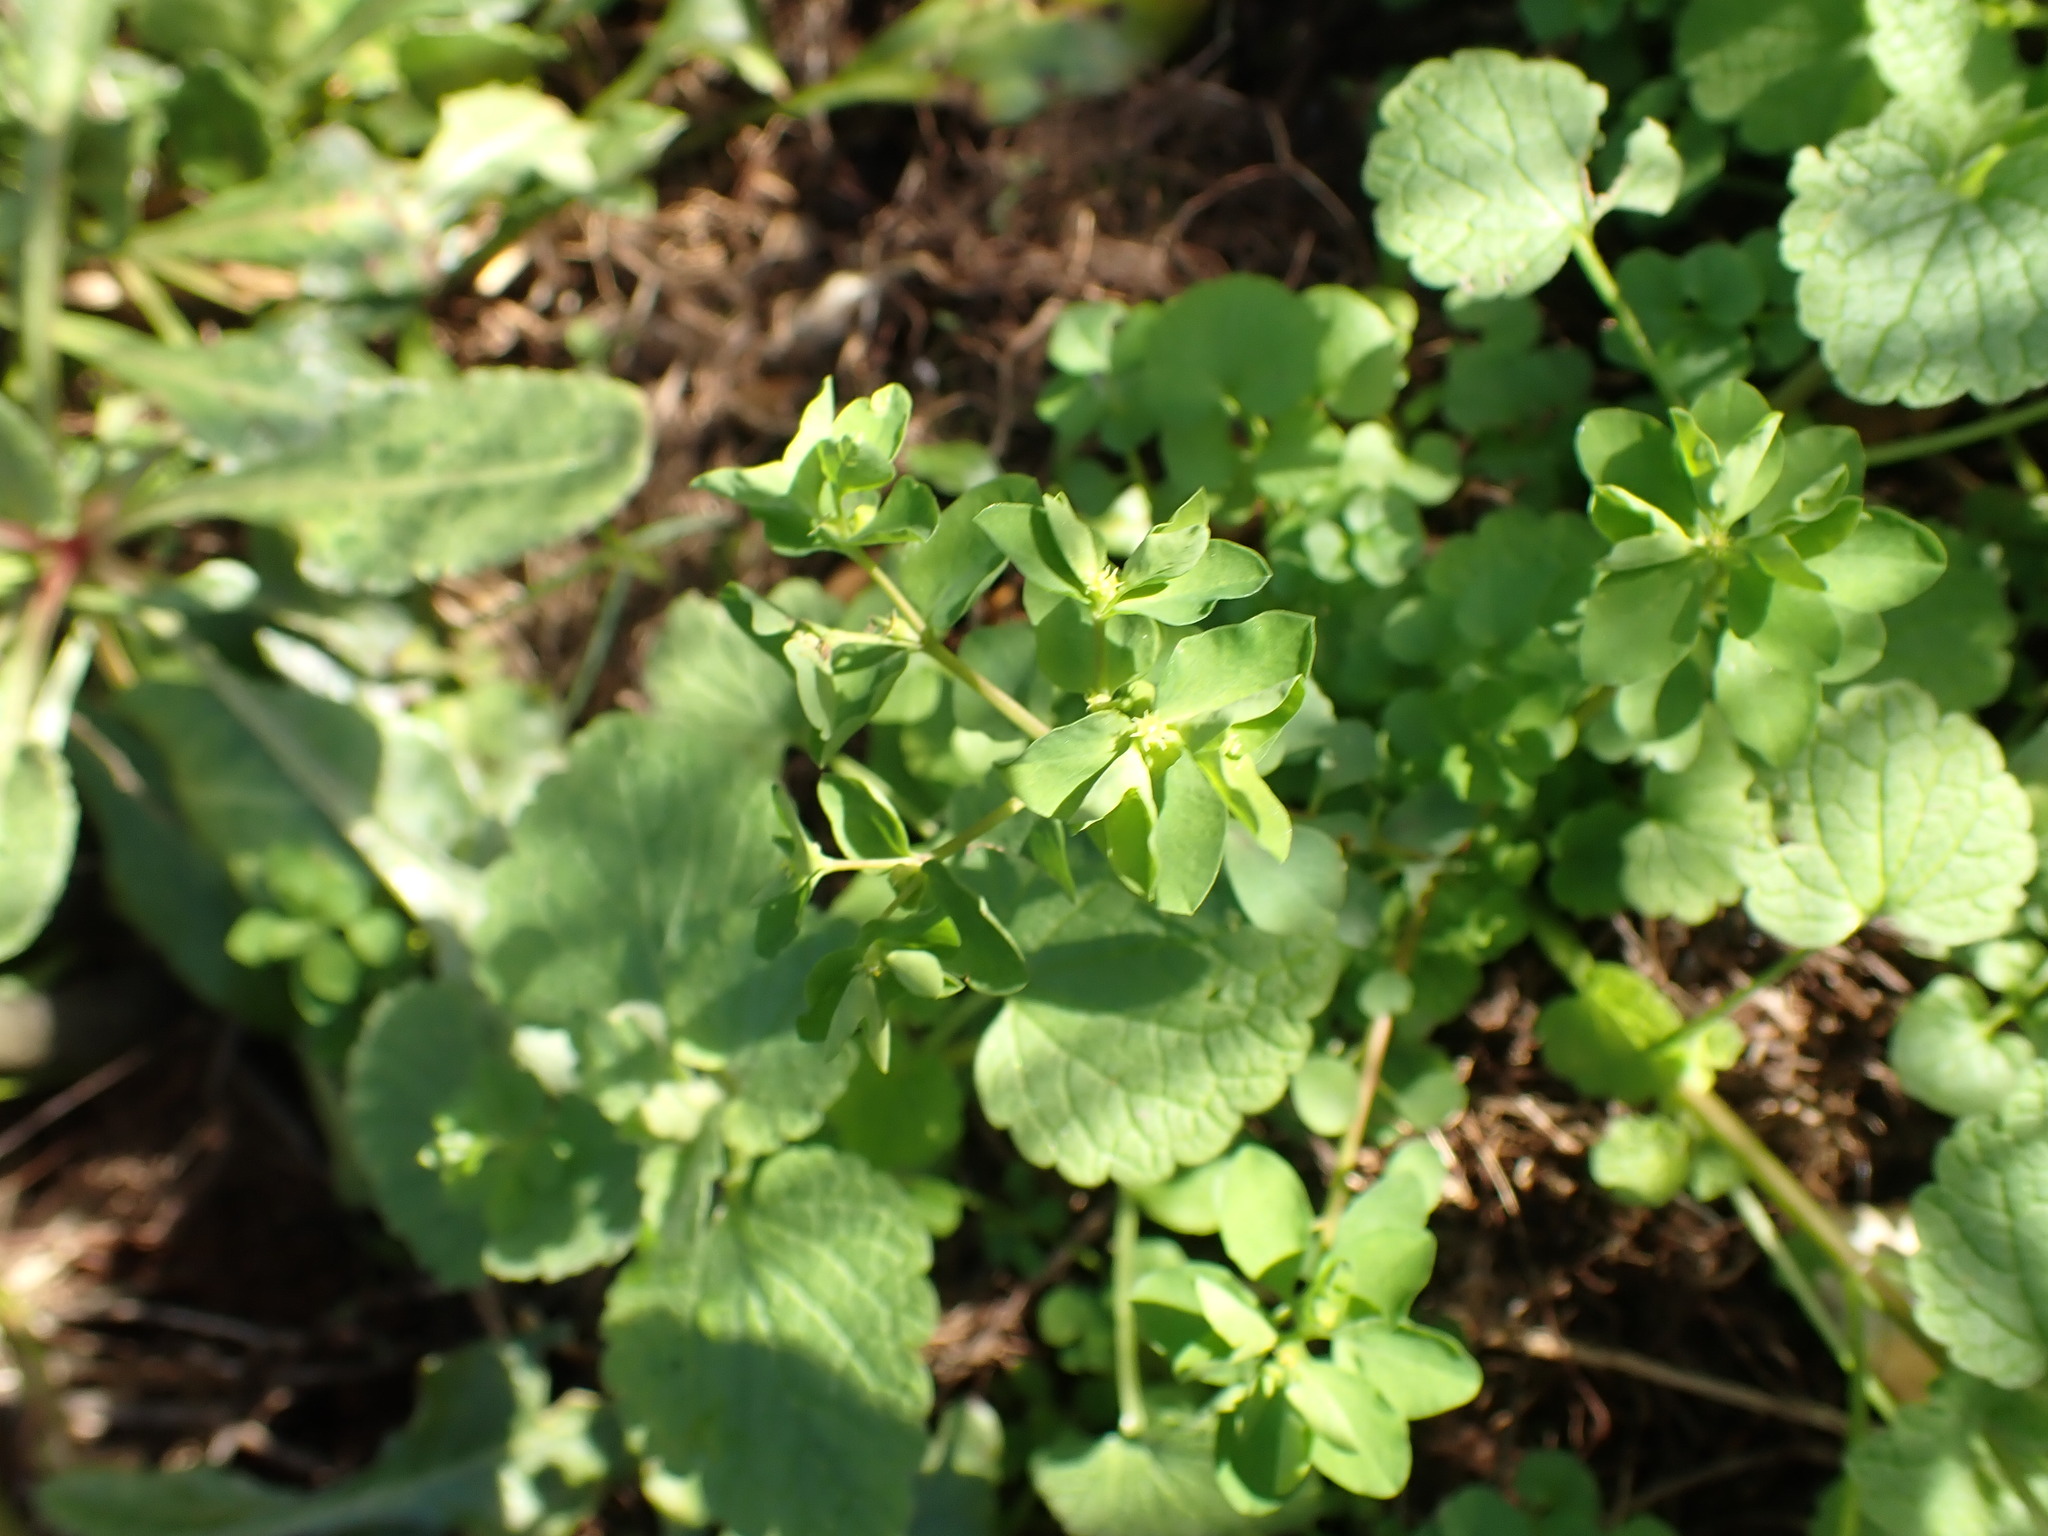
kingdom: Plantae
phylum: Tracheophyta
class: Magnoliopsida
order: Malpighiales
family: Euphorbiaceae
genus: Euphorbia
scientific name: Euphorbia peplus
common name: Petty spurge
